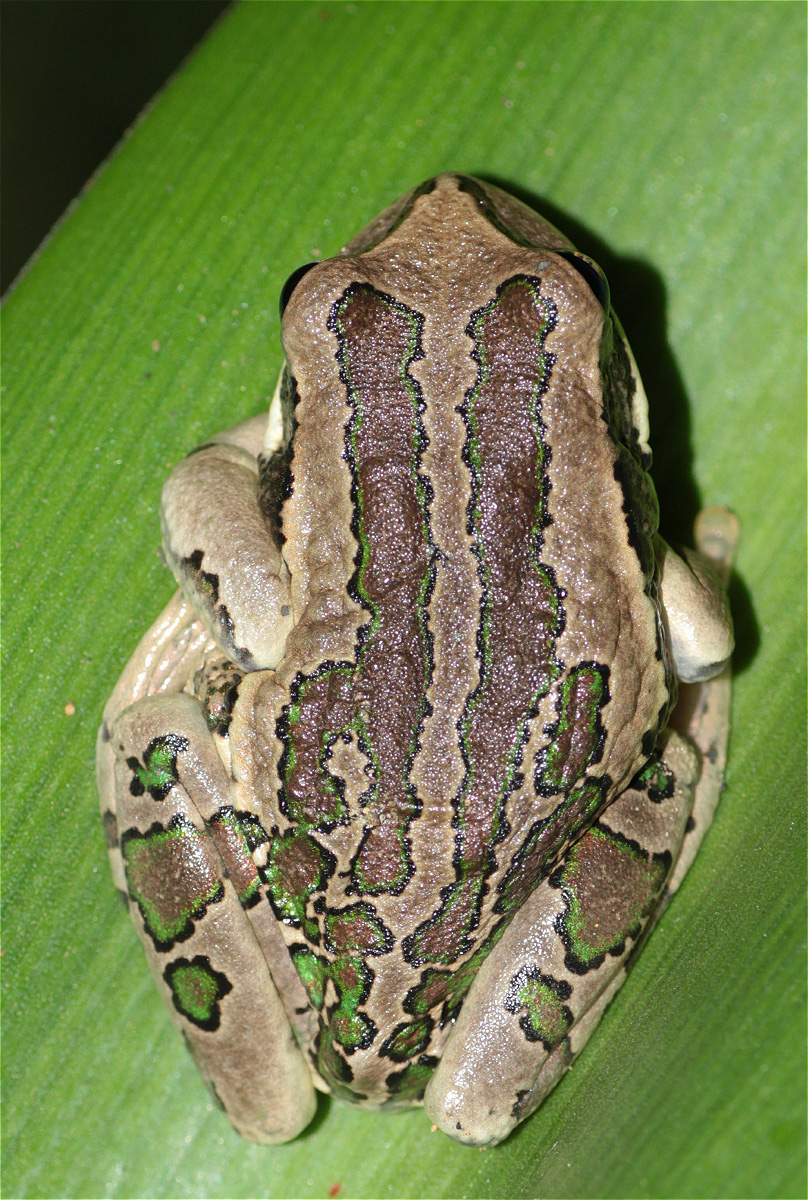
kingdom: Animalia
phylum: Chordata
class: Amphibia
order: Anura
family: Hemiphractidae
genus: Gastrotheca
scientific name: Gastrotheca cuencana
